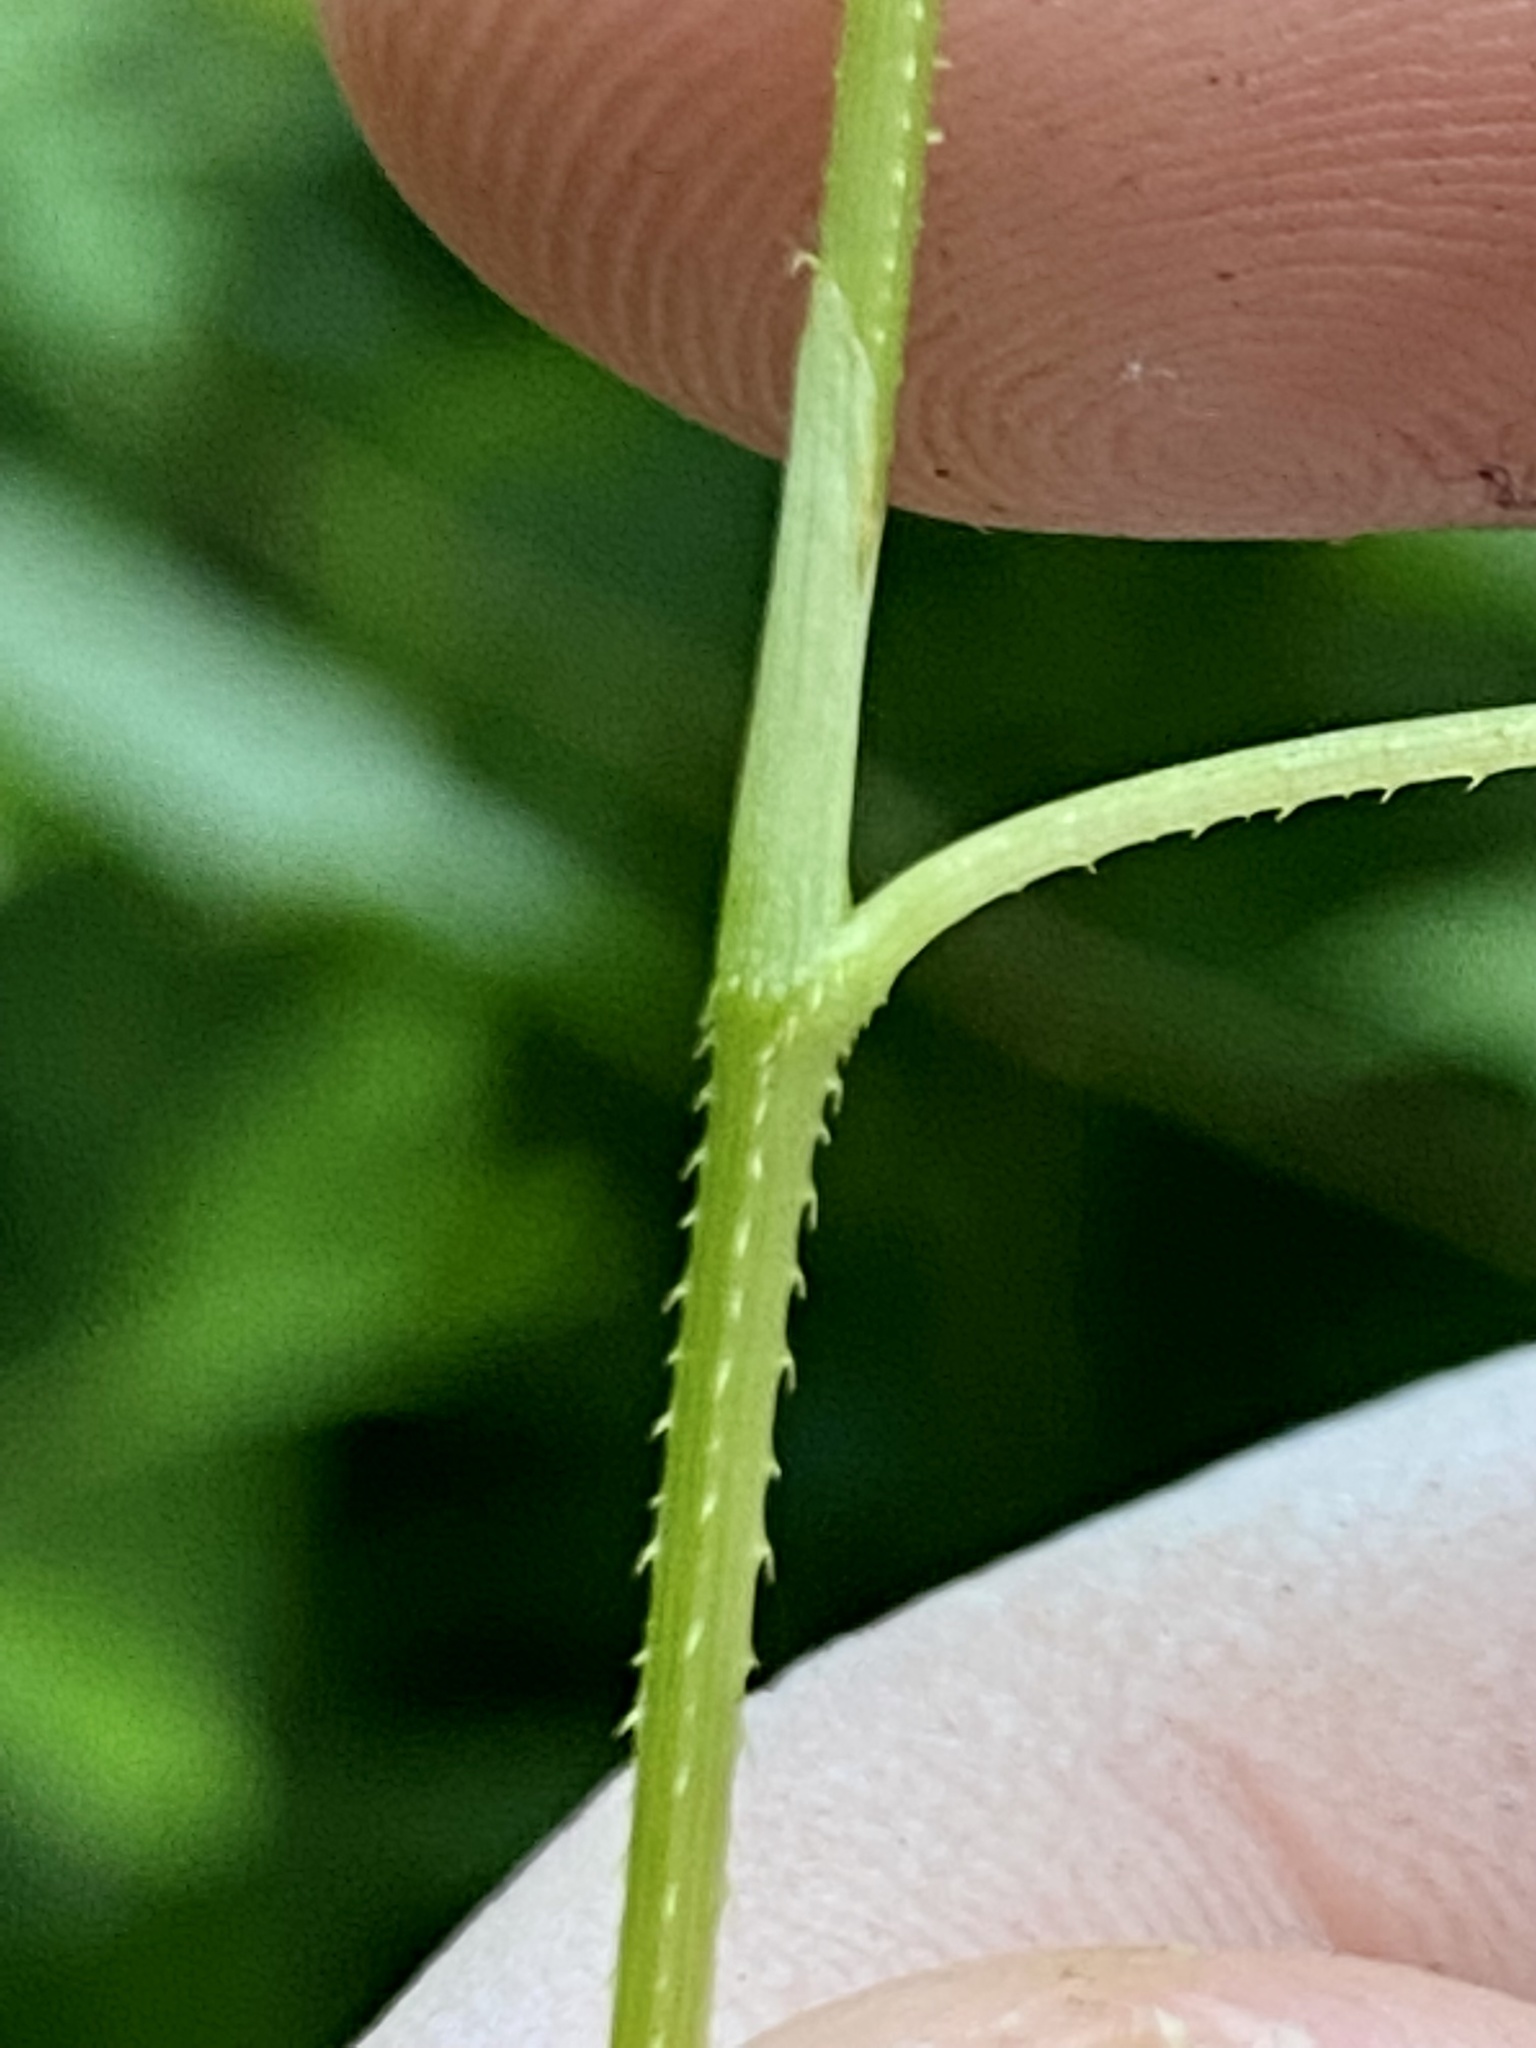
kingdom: Plantae
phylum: Tracheophyta
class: Magnoliopsida
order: Caryophyllales
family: Polygonaceae
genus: Persicaria
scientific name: Persicaria sagittata
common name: American tearthumb
